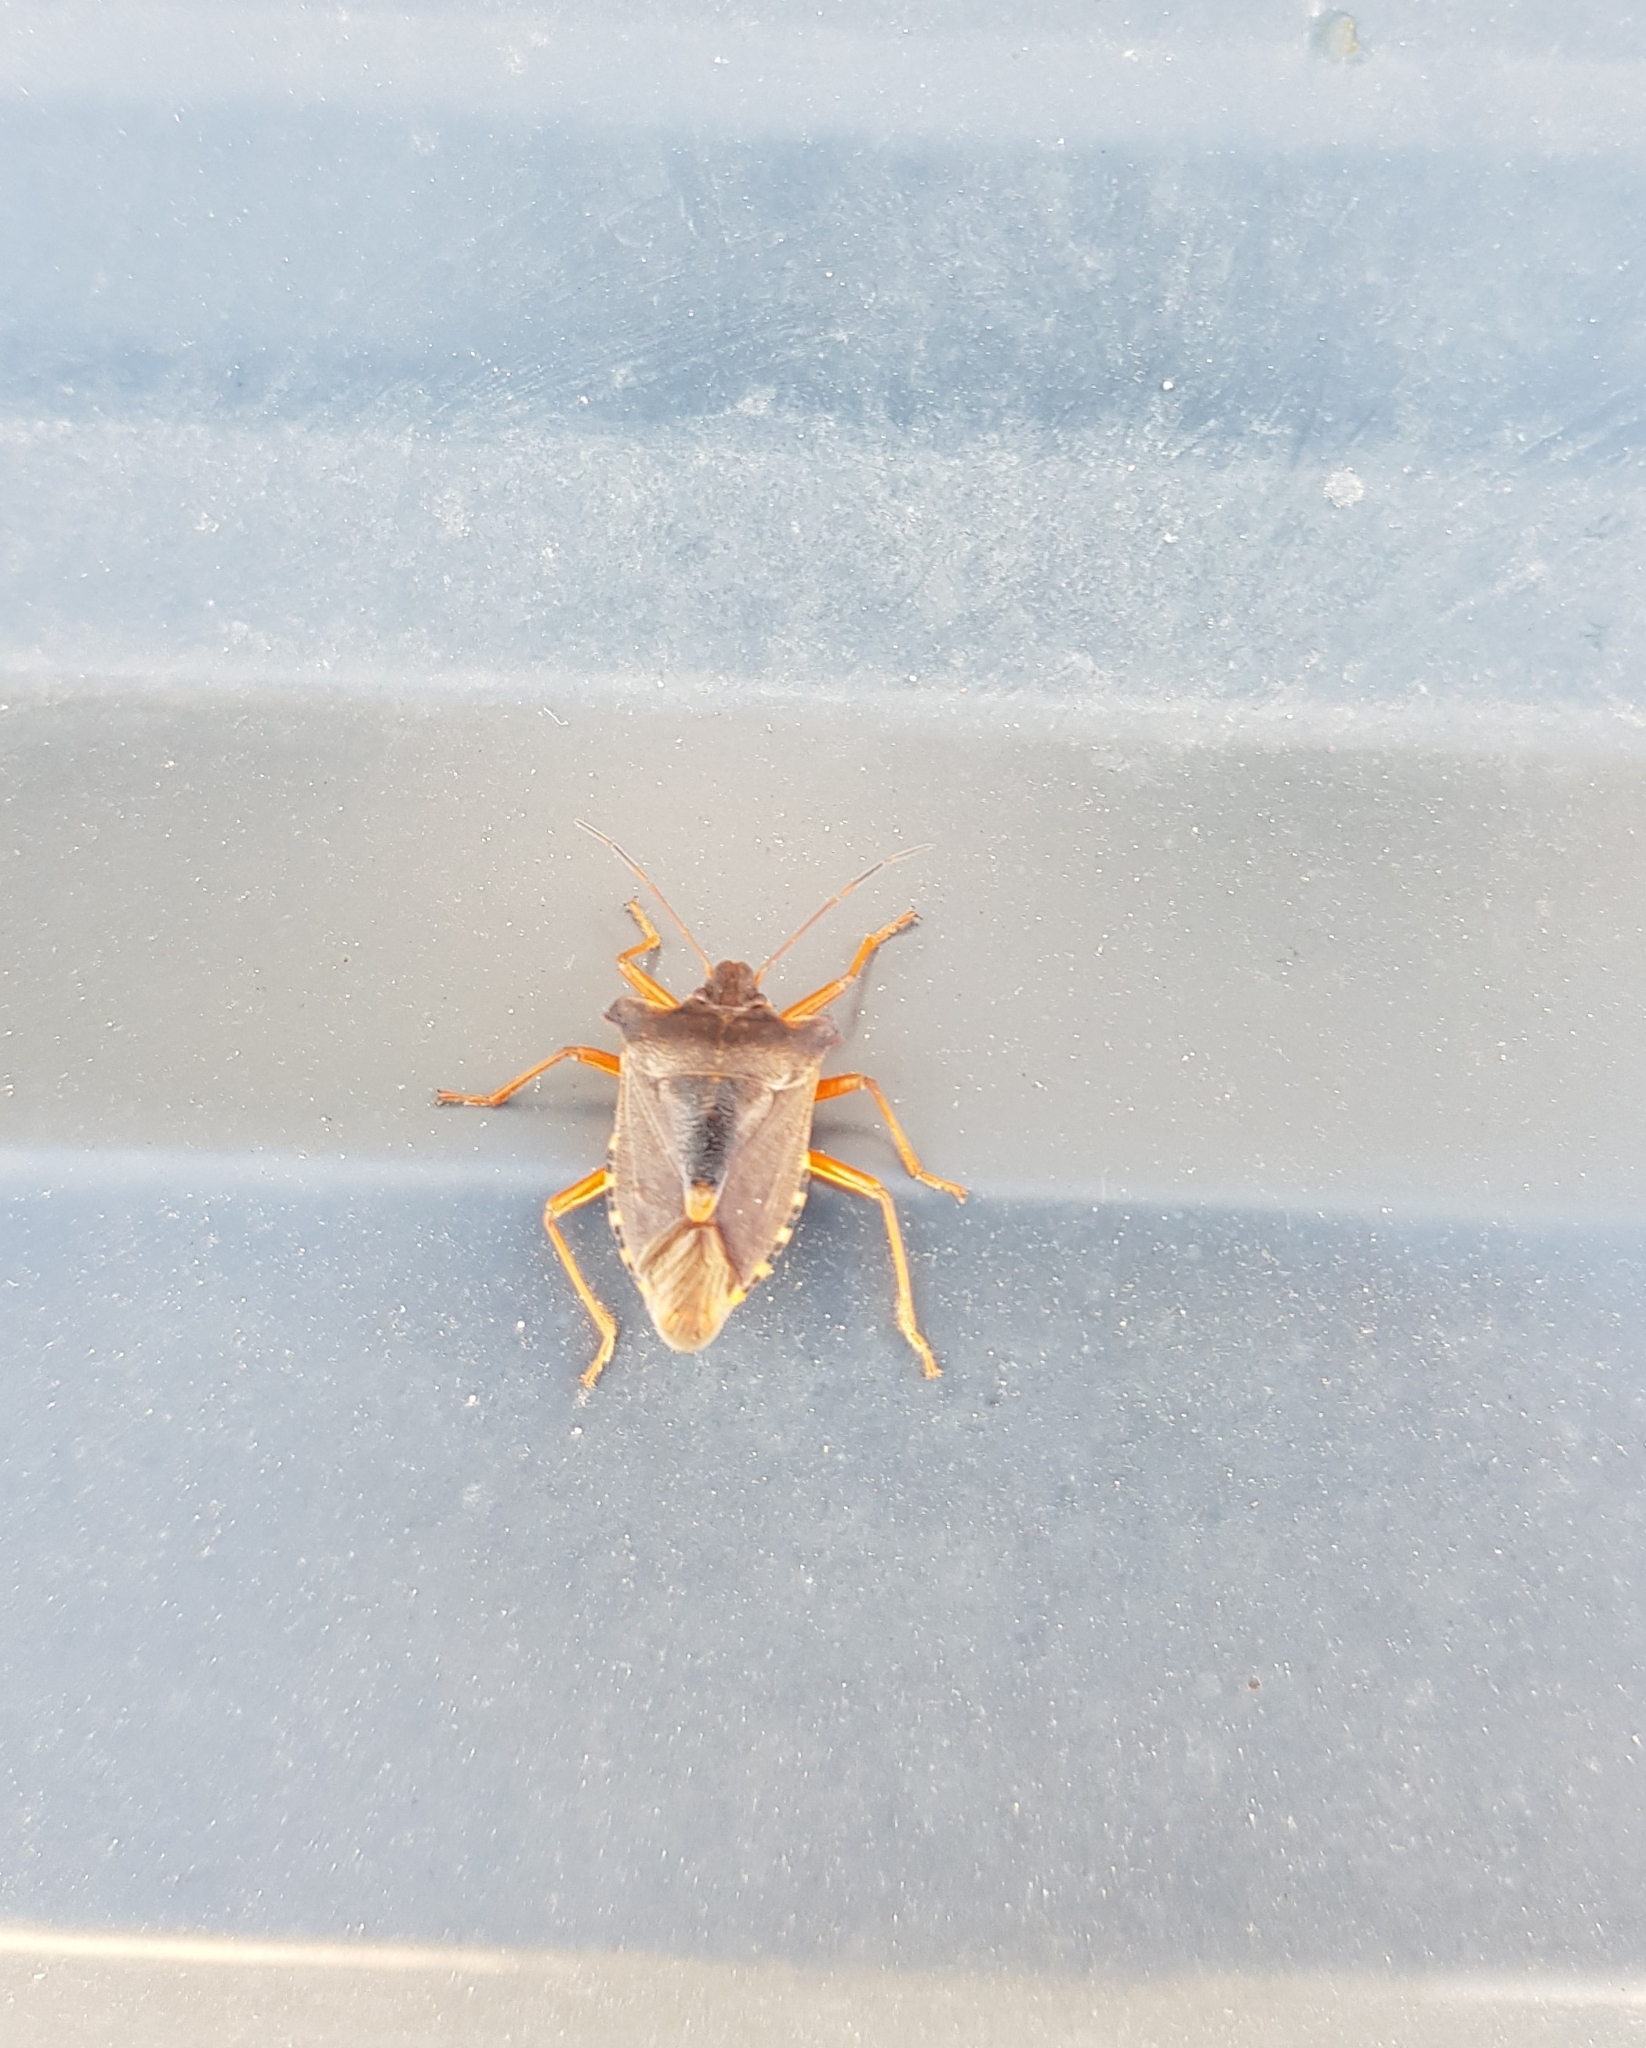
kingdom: Animalia
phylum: Arthropoda
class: Insecta
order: Hemiptera
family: Pentatomidae
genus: Pentatoma
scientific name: Pentatoma rufipes
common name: Forest bug
